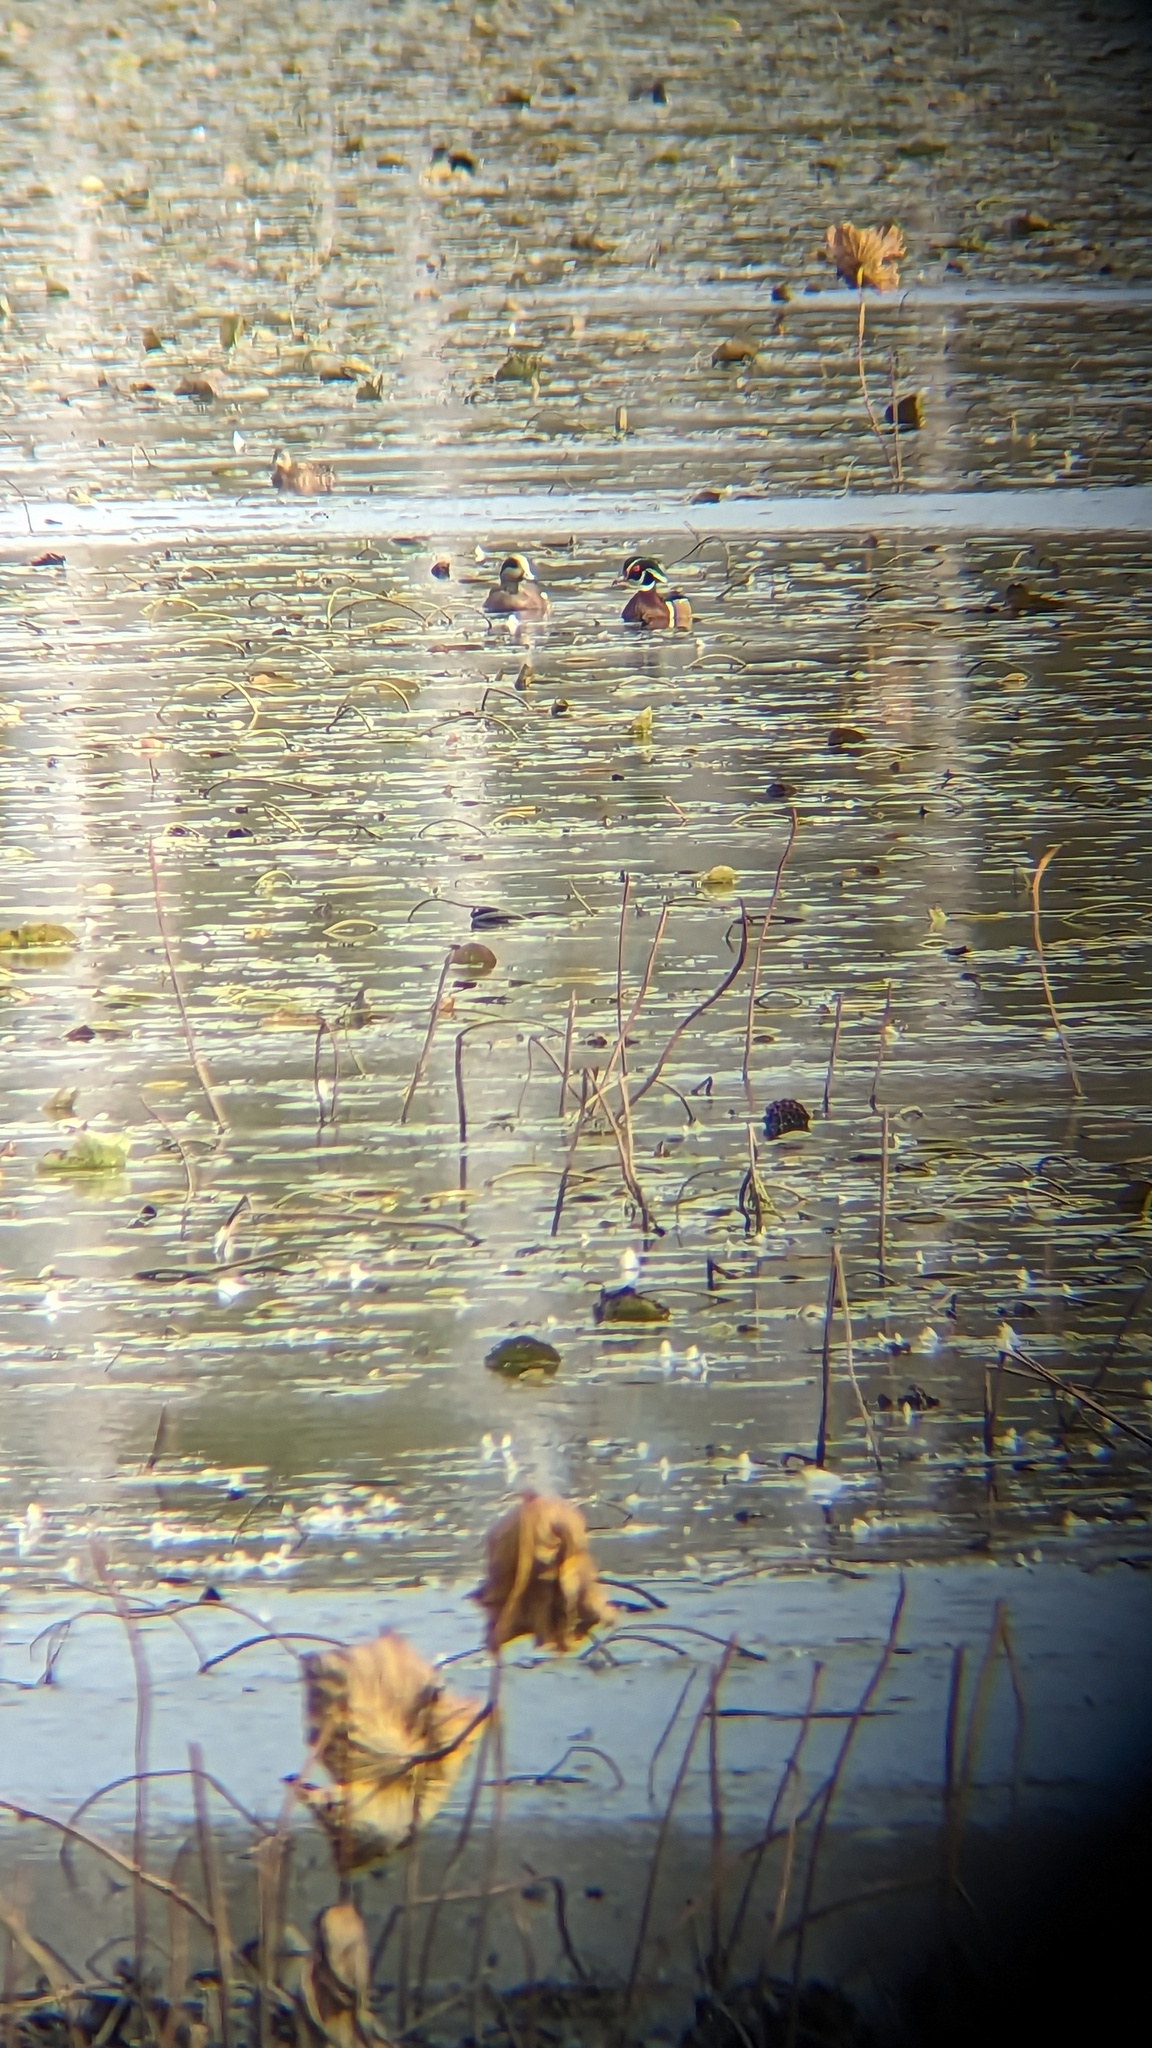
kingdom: Animalia
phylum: Chordata
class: Aves
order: Anseriformes
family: Anatidae
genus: Mareca
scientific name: Mareca americana
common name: American wigeon
